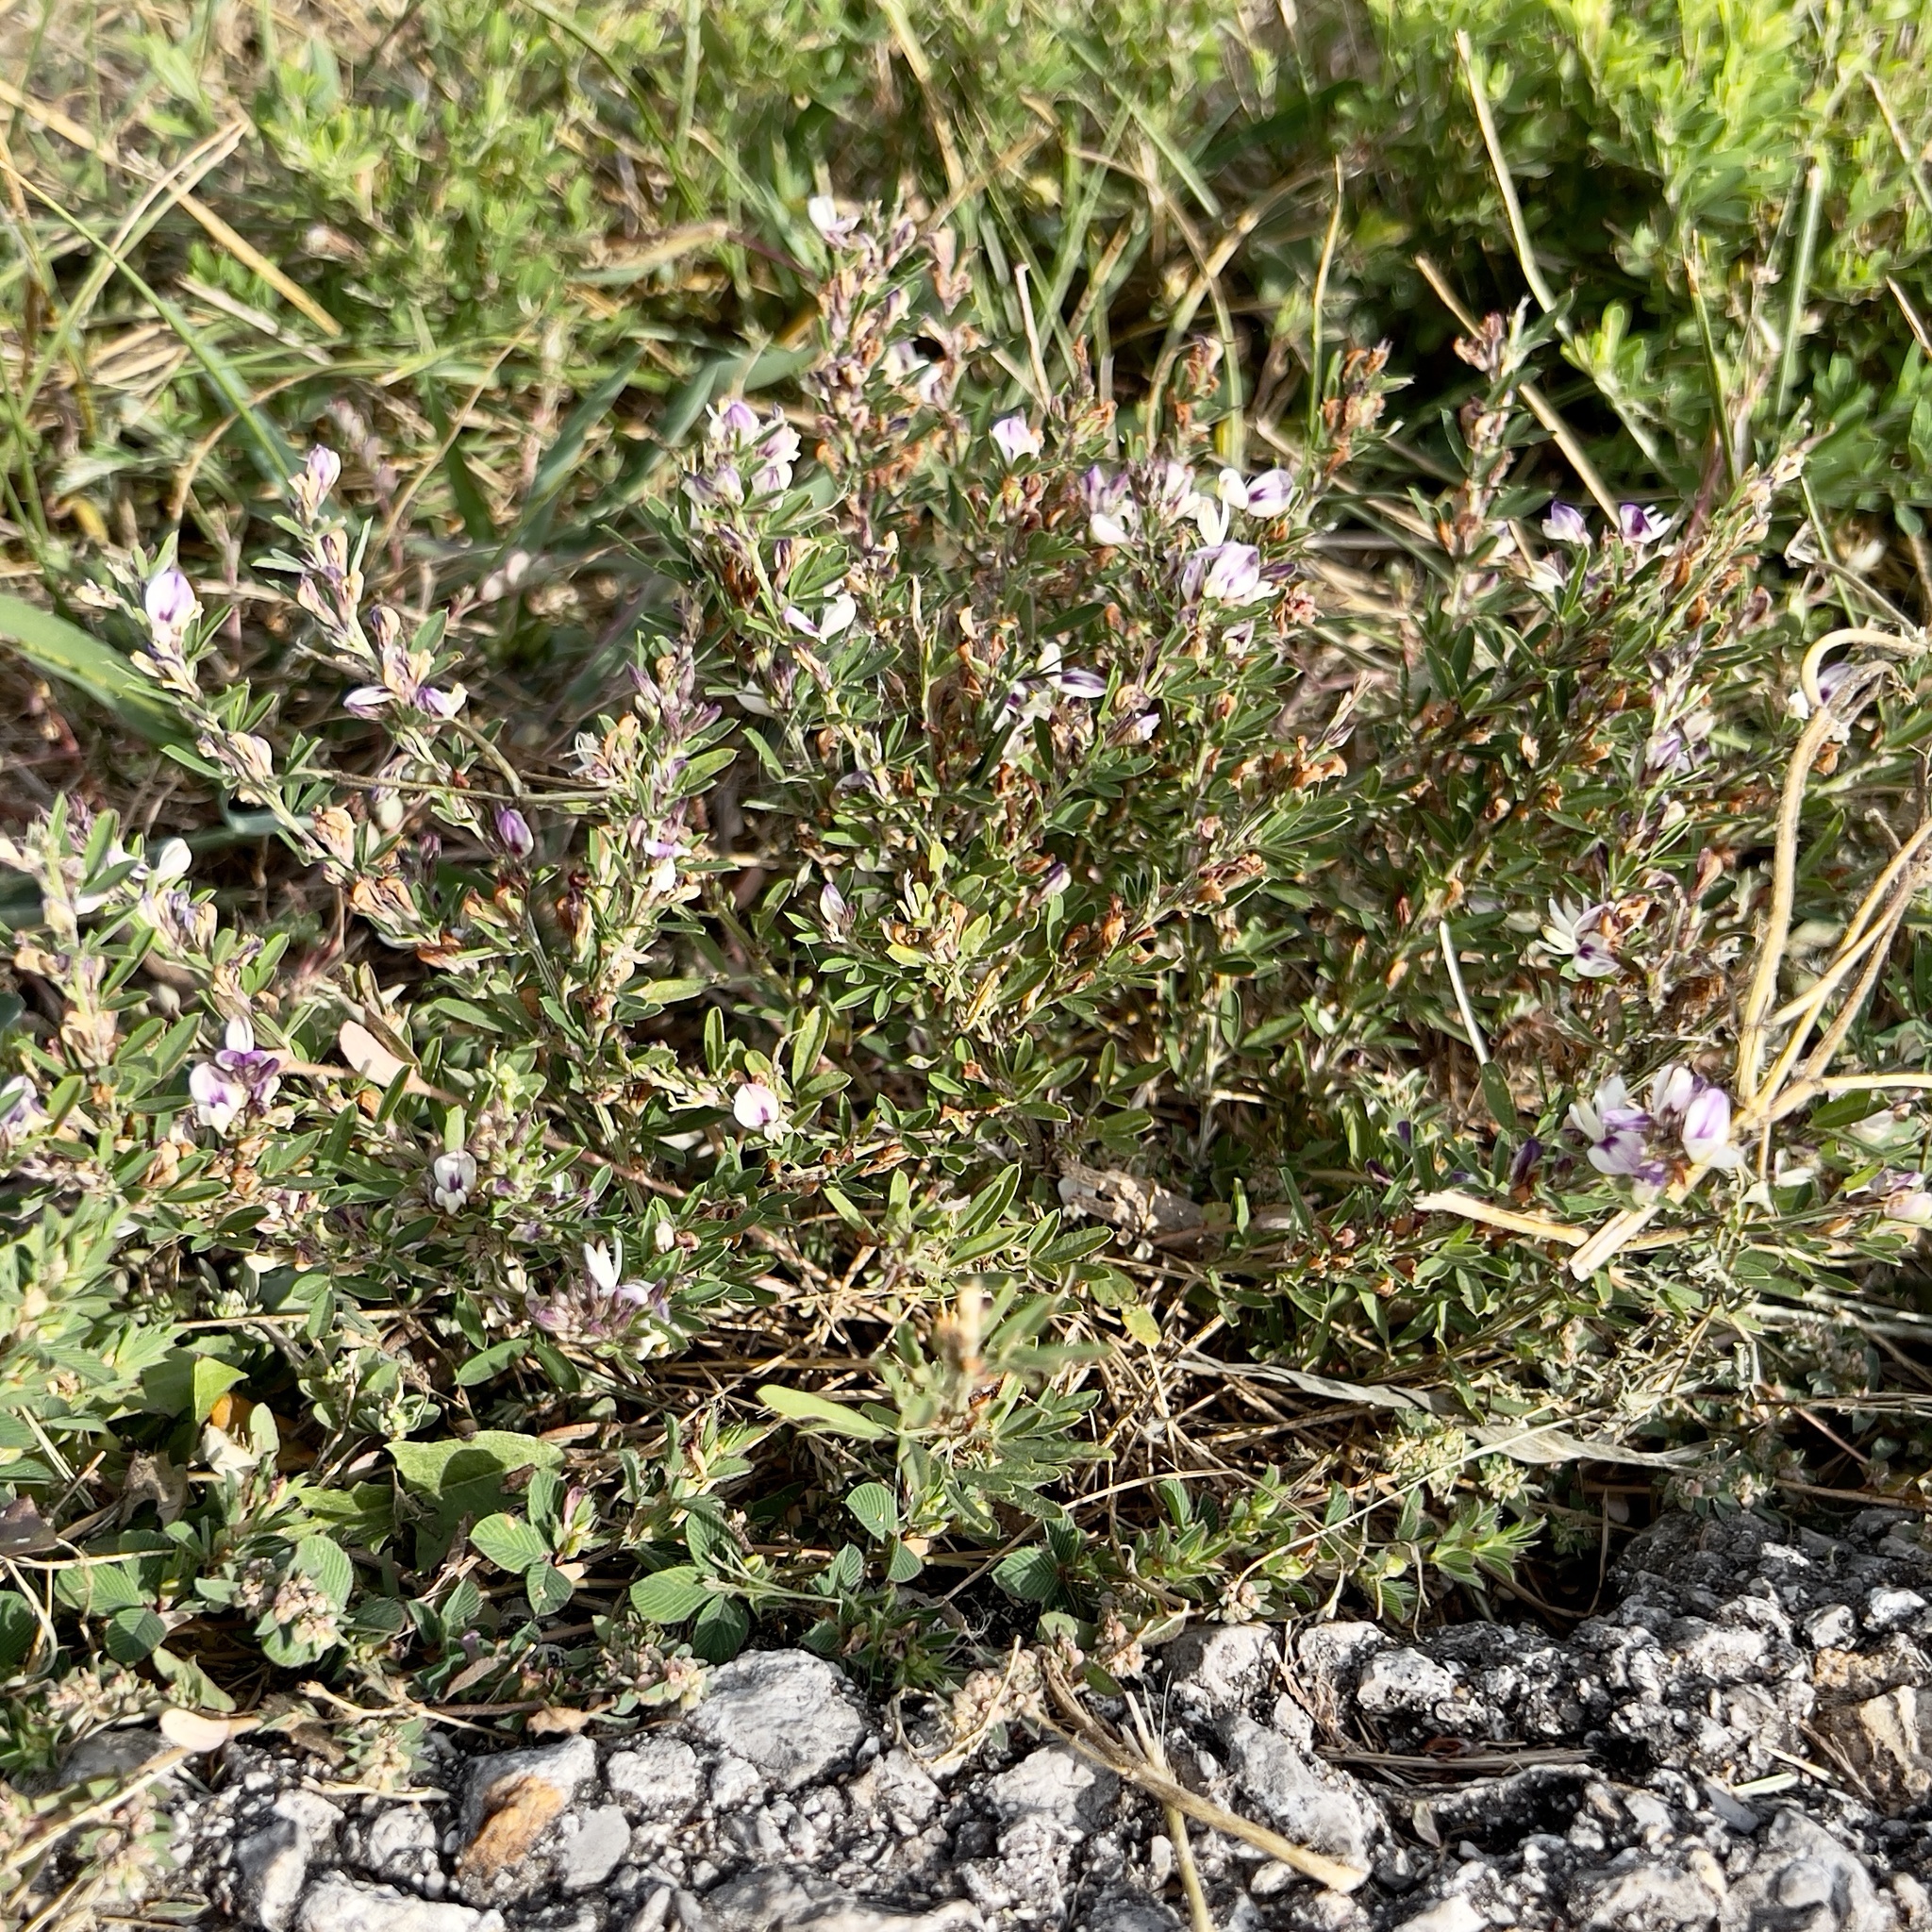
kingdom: Plantae
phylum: Tracheophyta
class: Magnoliopsida
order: Fabales
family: Fabaceae
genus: Lespedeza
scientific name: Lespedeza cuneata
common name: Chinese bush-clover
